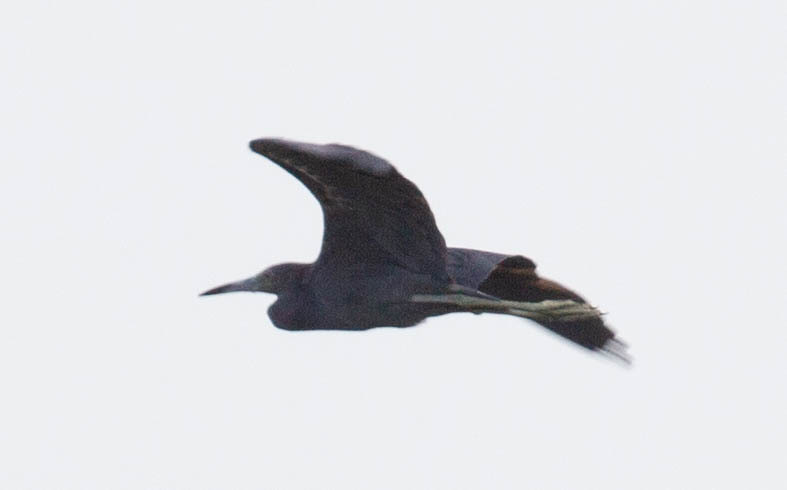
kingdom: Animalia
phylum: Chordata
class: Aves
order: Pelecaniformes
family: Ardeidae
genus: Egretta
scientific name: Egretta caerulea
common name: Little blue heron
